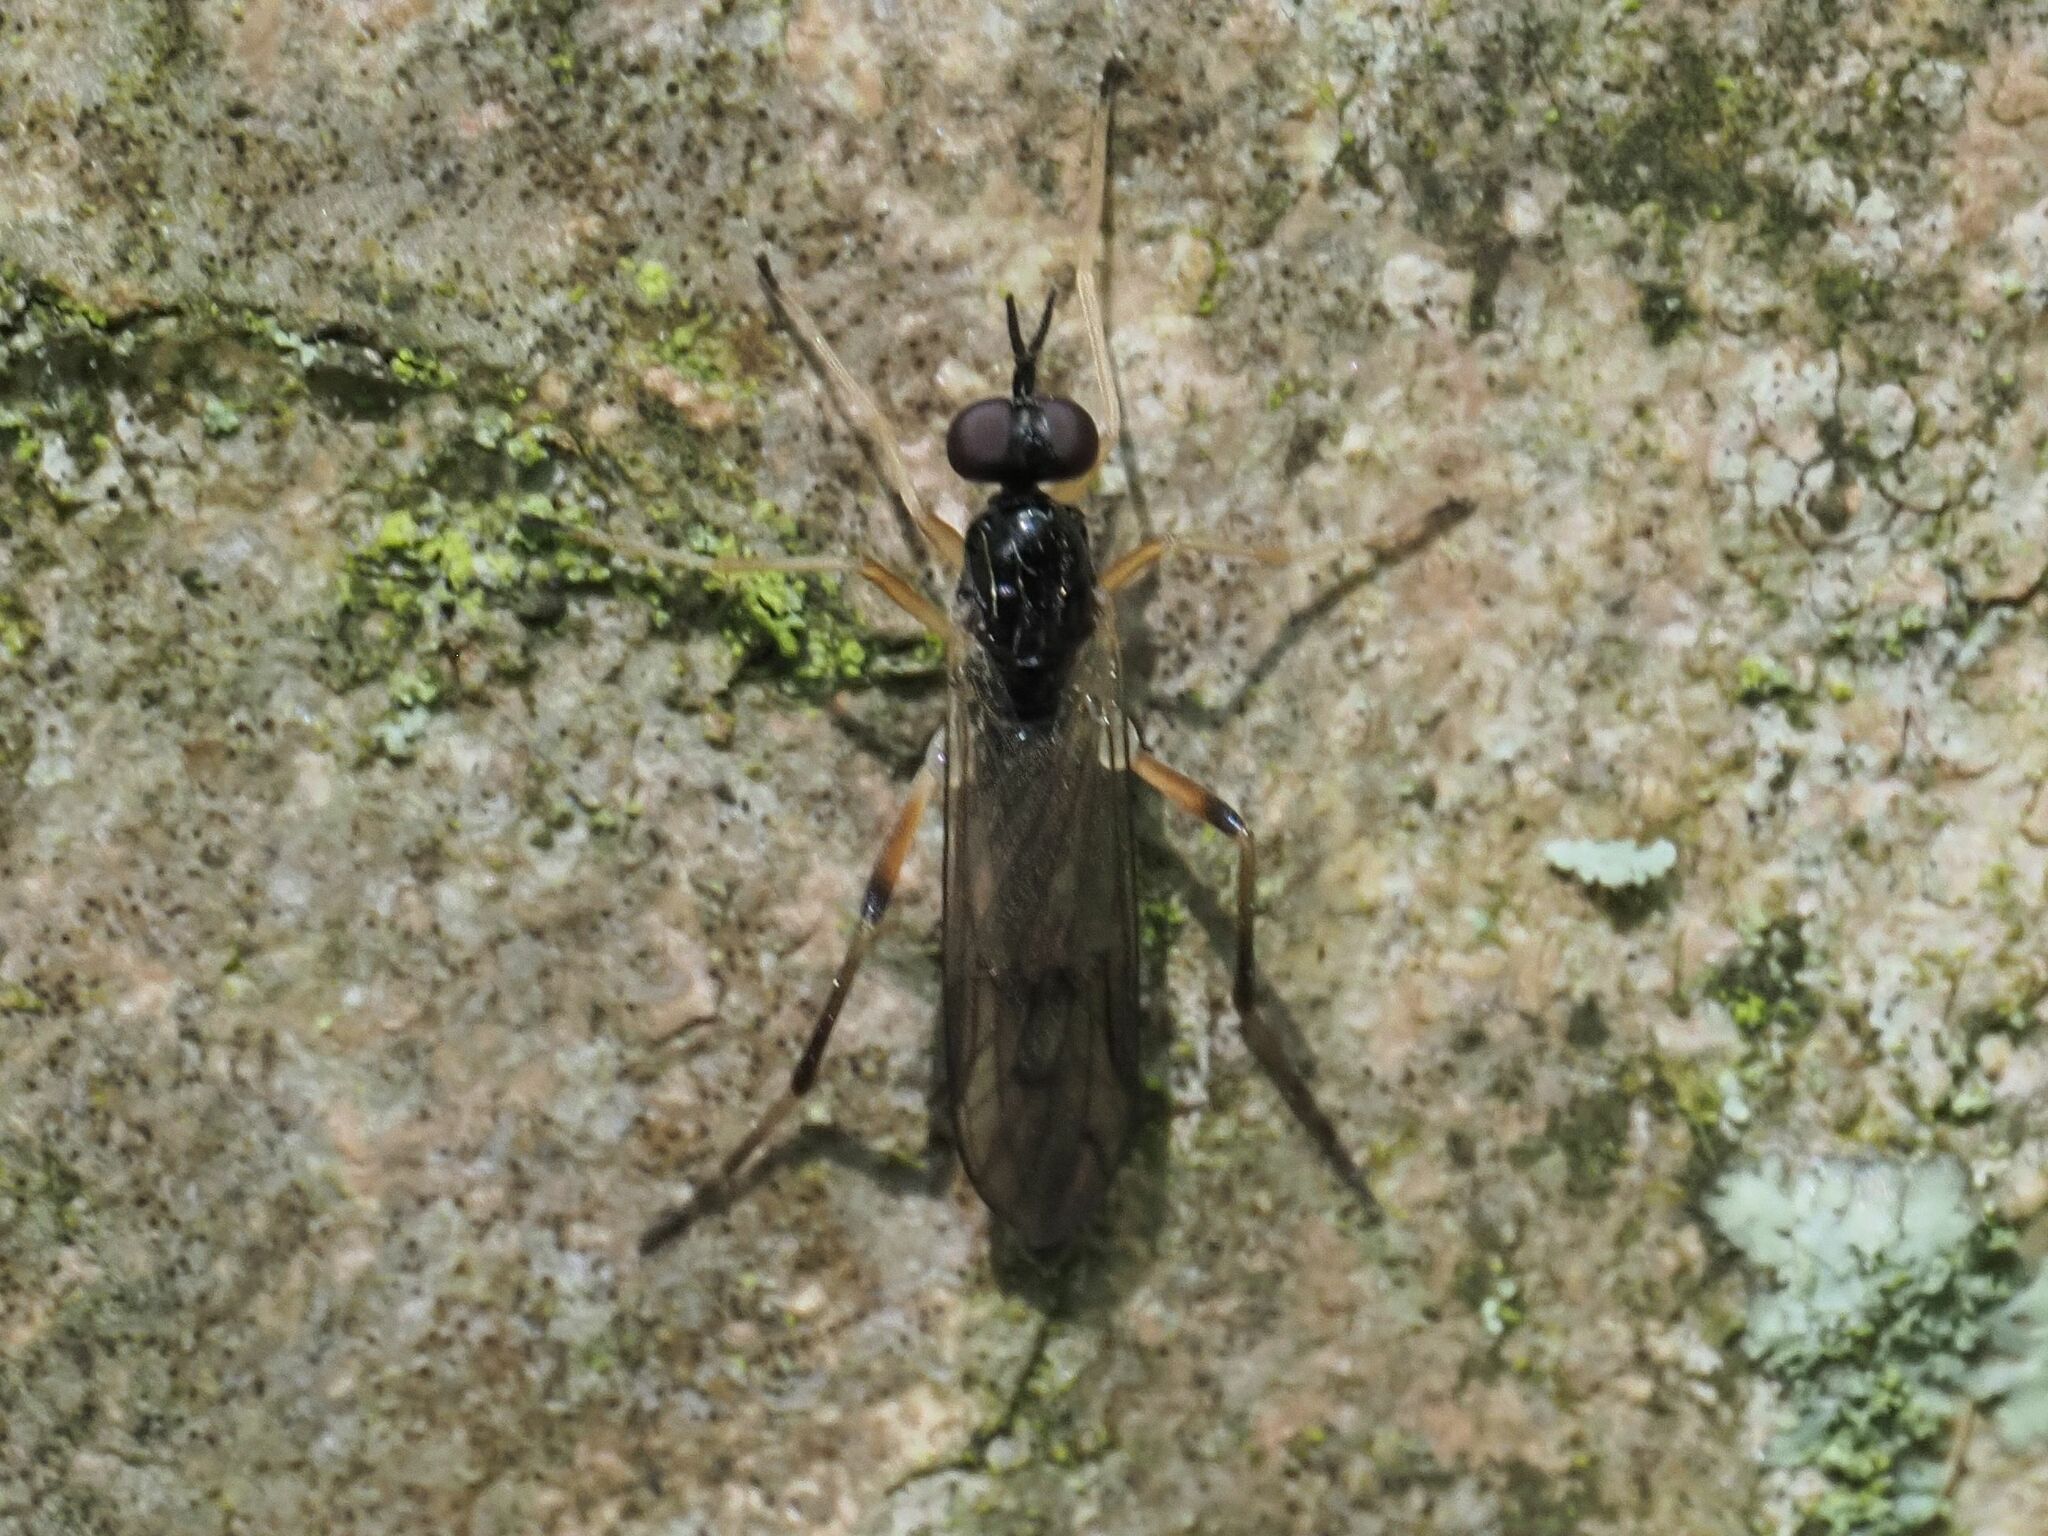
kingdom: Animalia
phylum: Arthropoda
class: Insecta
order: Diptera
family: Xylophagidae
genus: Xylophagus
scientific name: Xylophagus ater
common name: Common awl-fly
